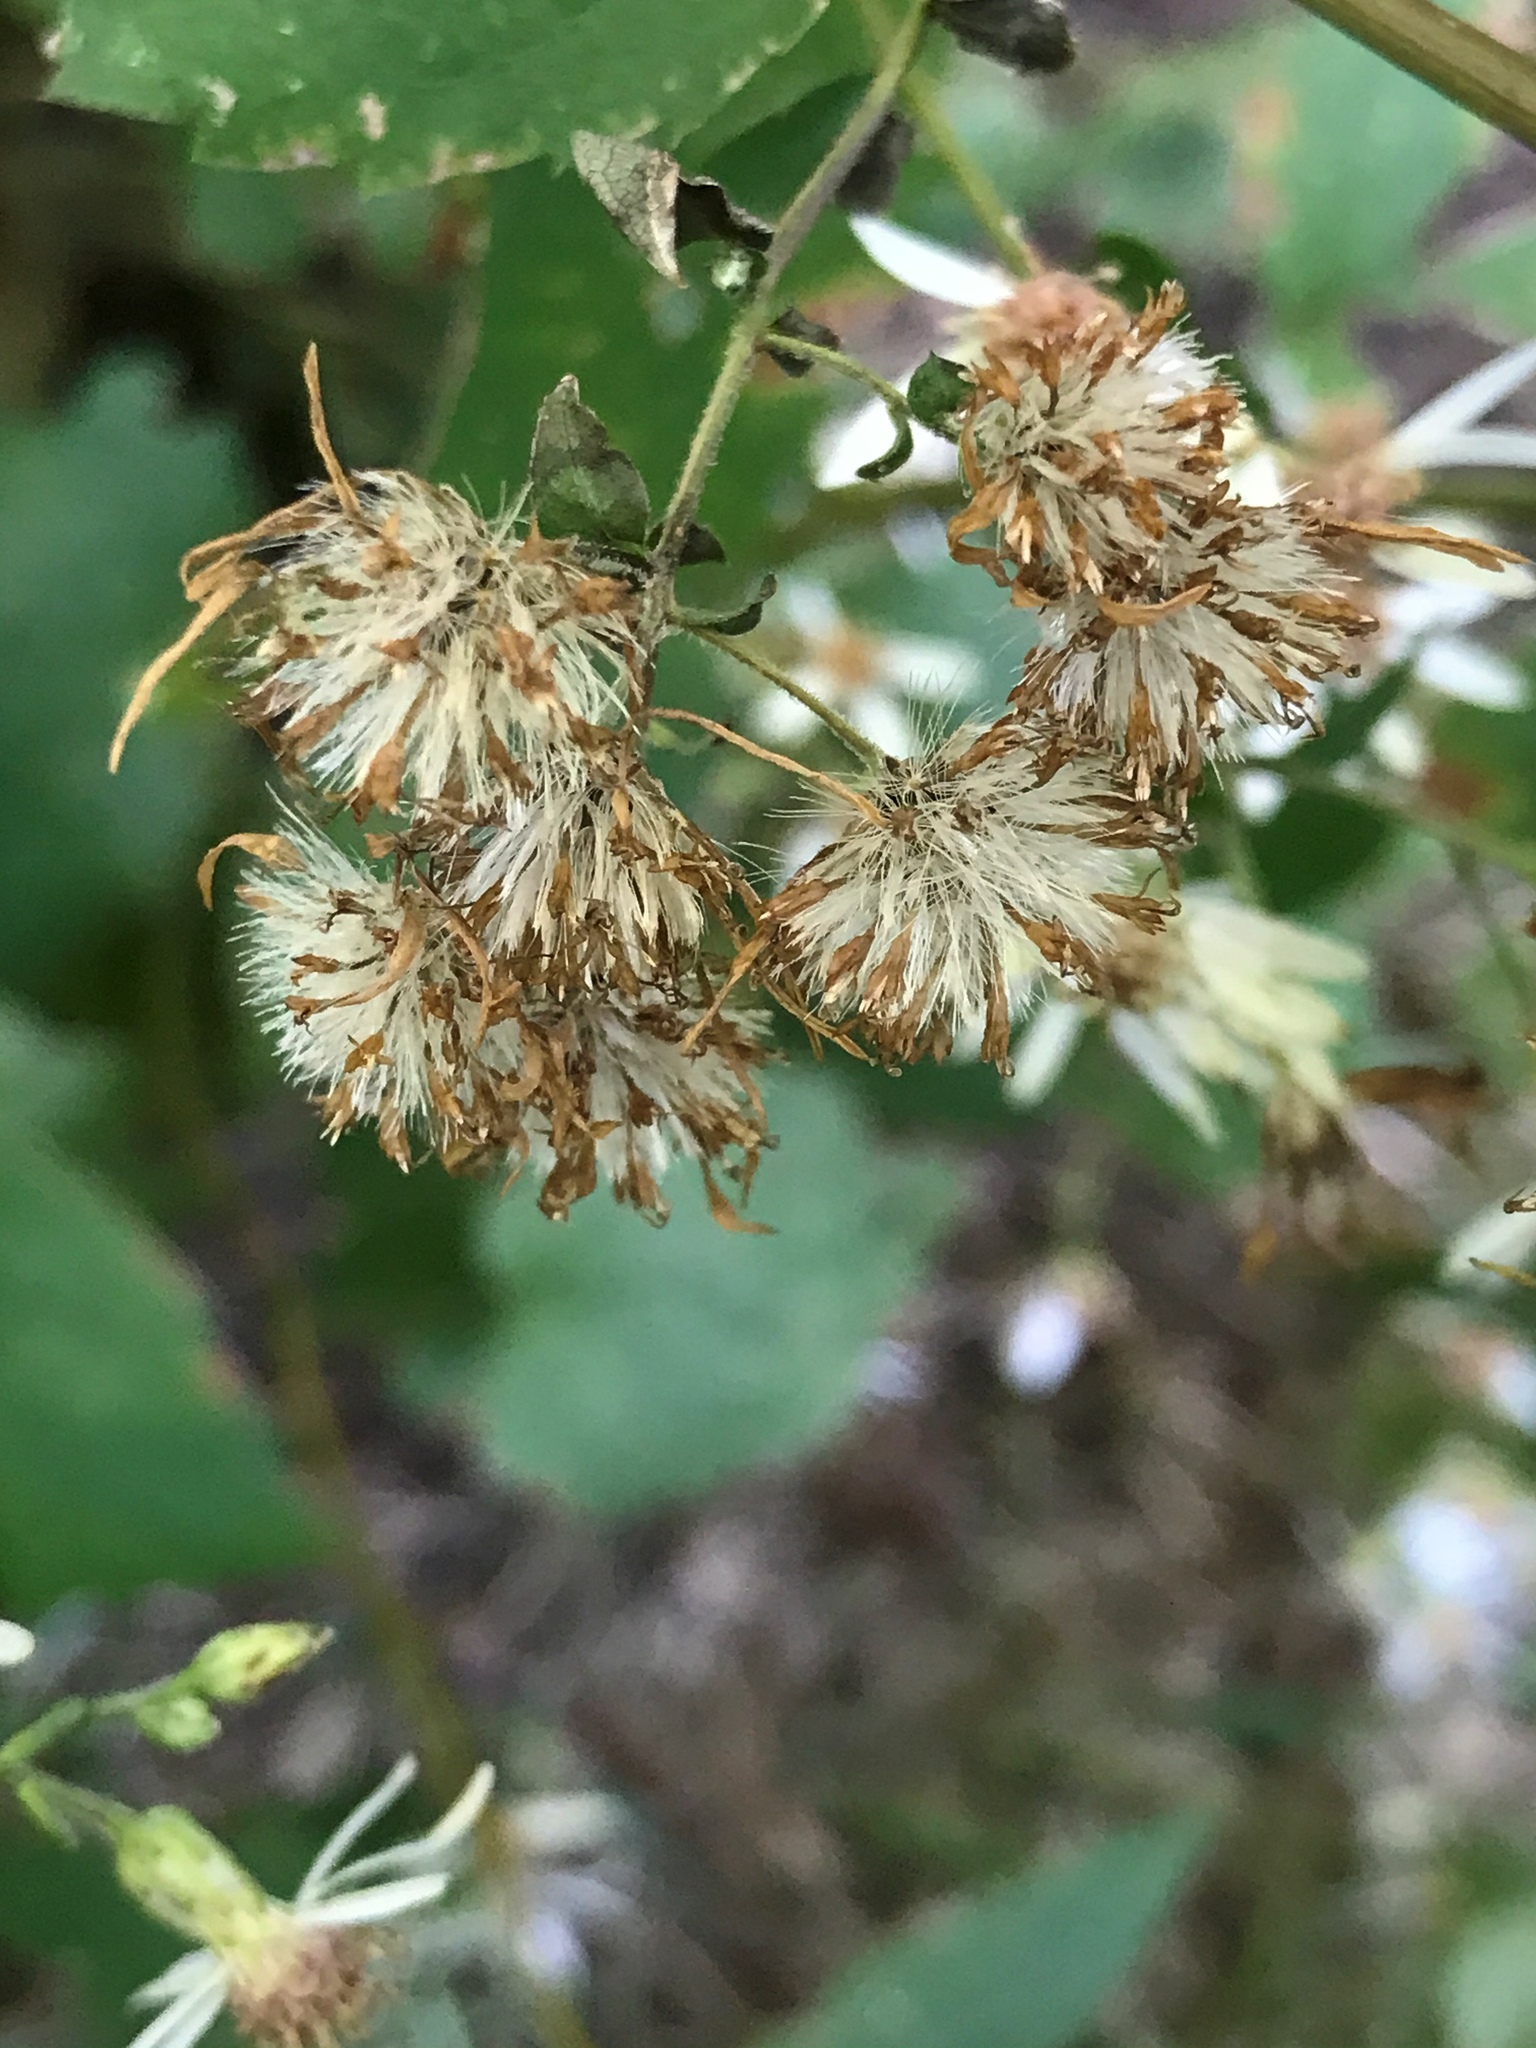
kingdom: Plantae
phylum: Tracheophyta
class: Magnoliopsida
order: Asterales
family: Asteraceae
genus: Eurybia
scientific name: Eurybia divaricata
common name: White wood aster
